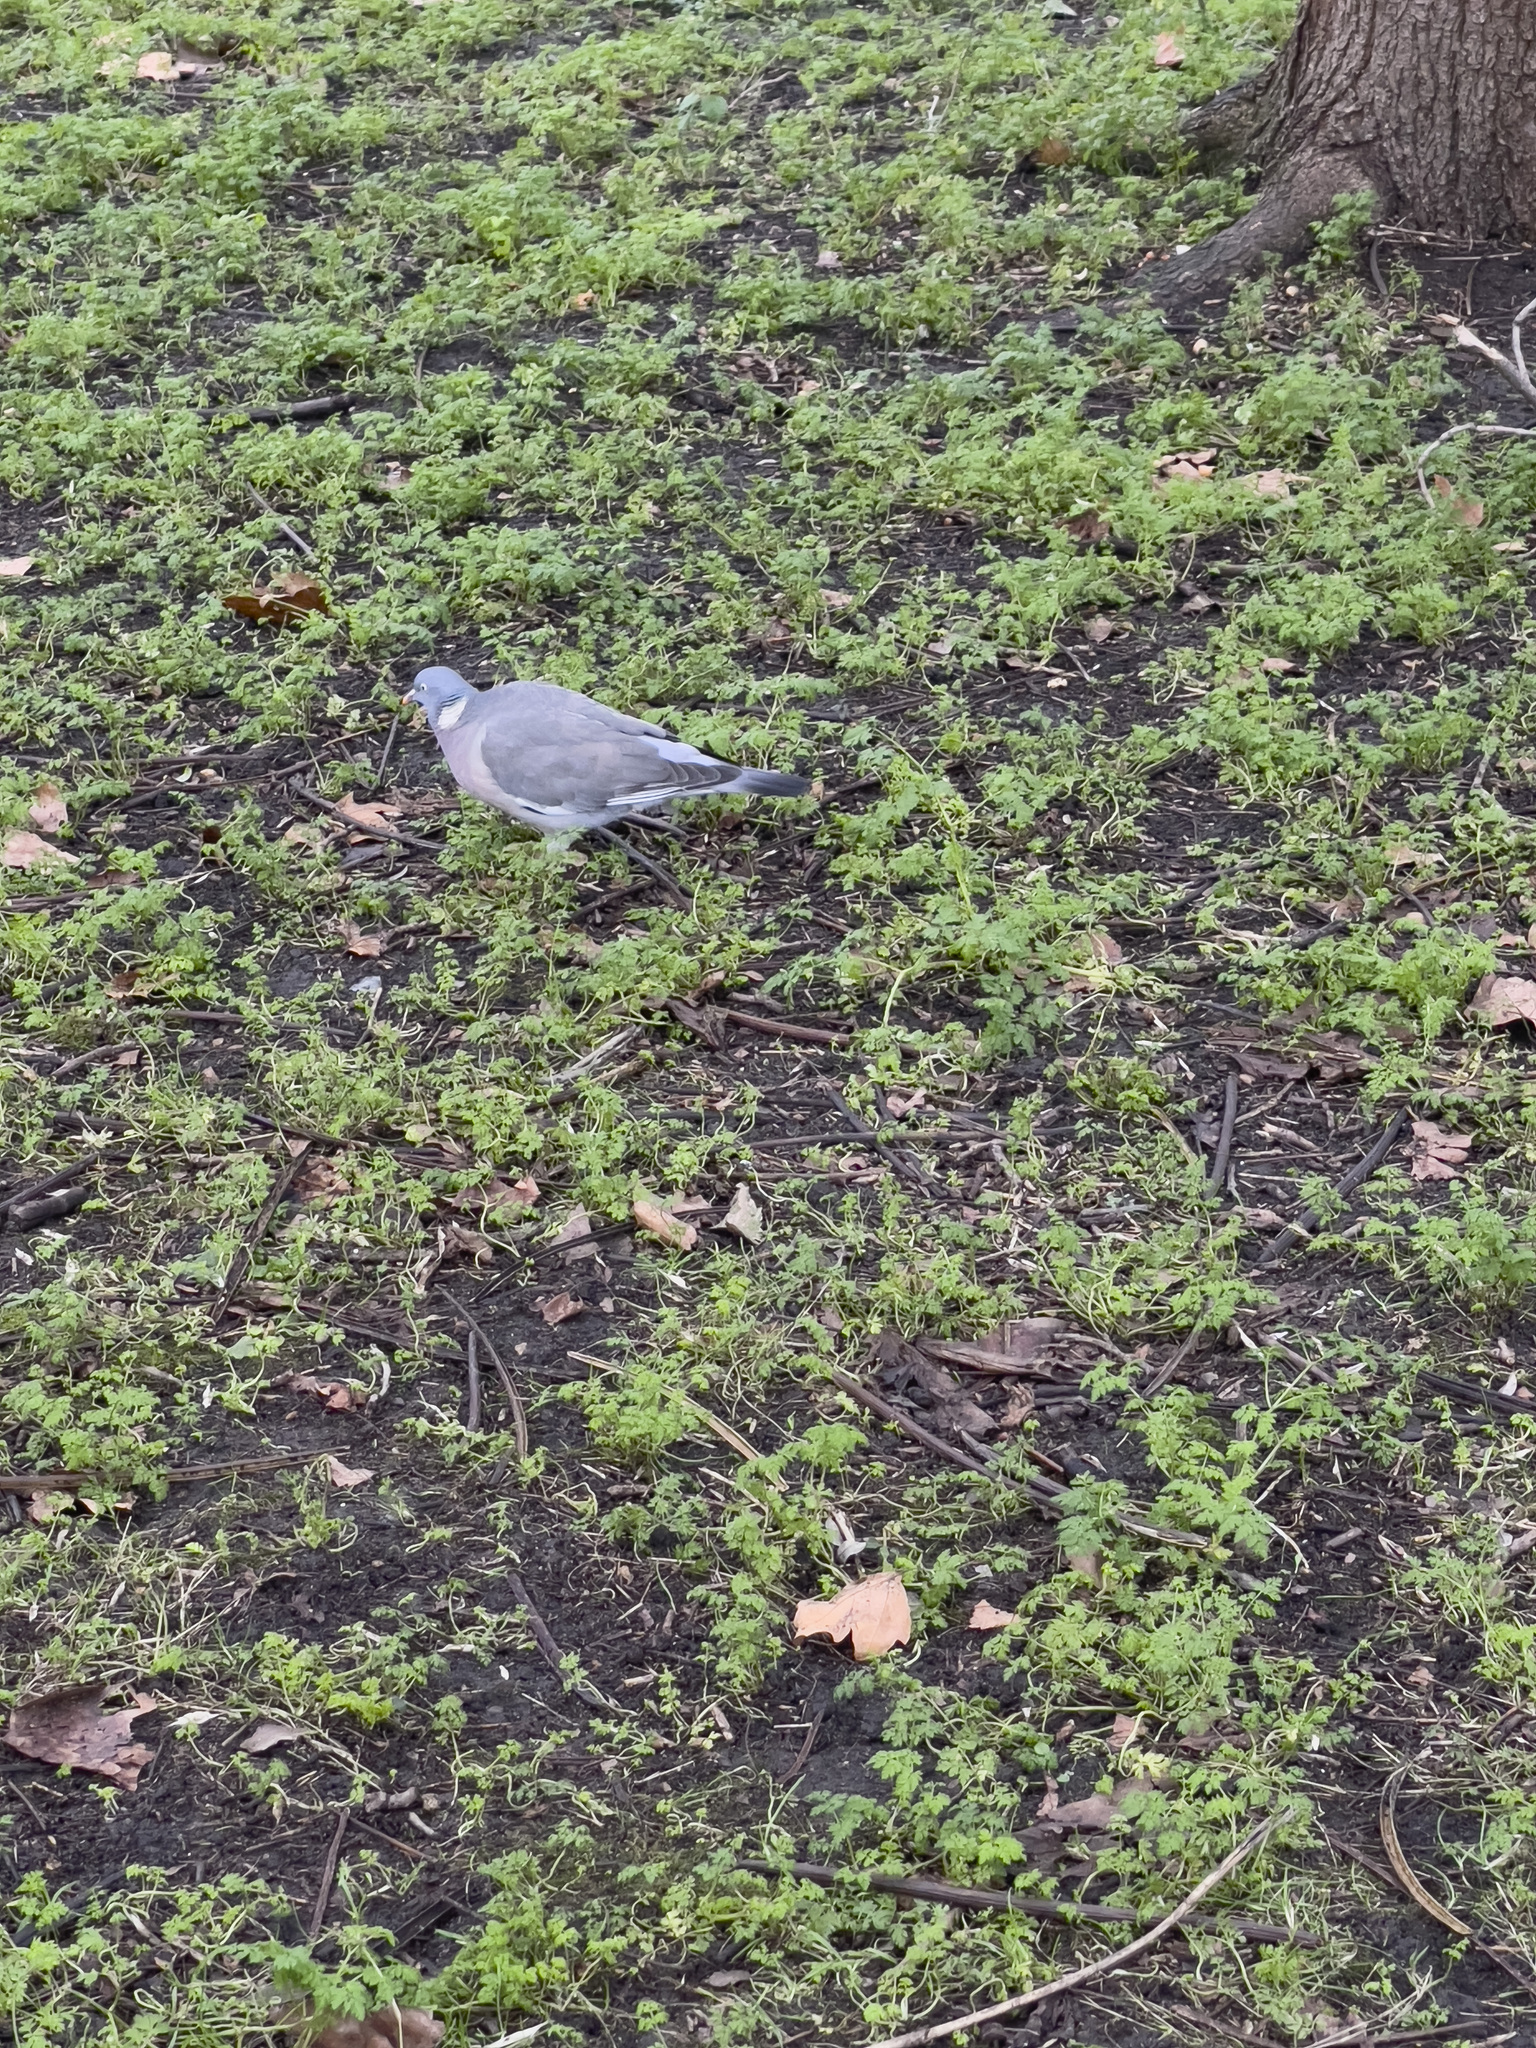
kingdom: Animalia
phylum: Chordata
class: Aves
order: Columbiformes
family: Columbidae
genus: Columba
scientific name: Columba palumbus
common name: Common wood pigeon
